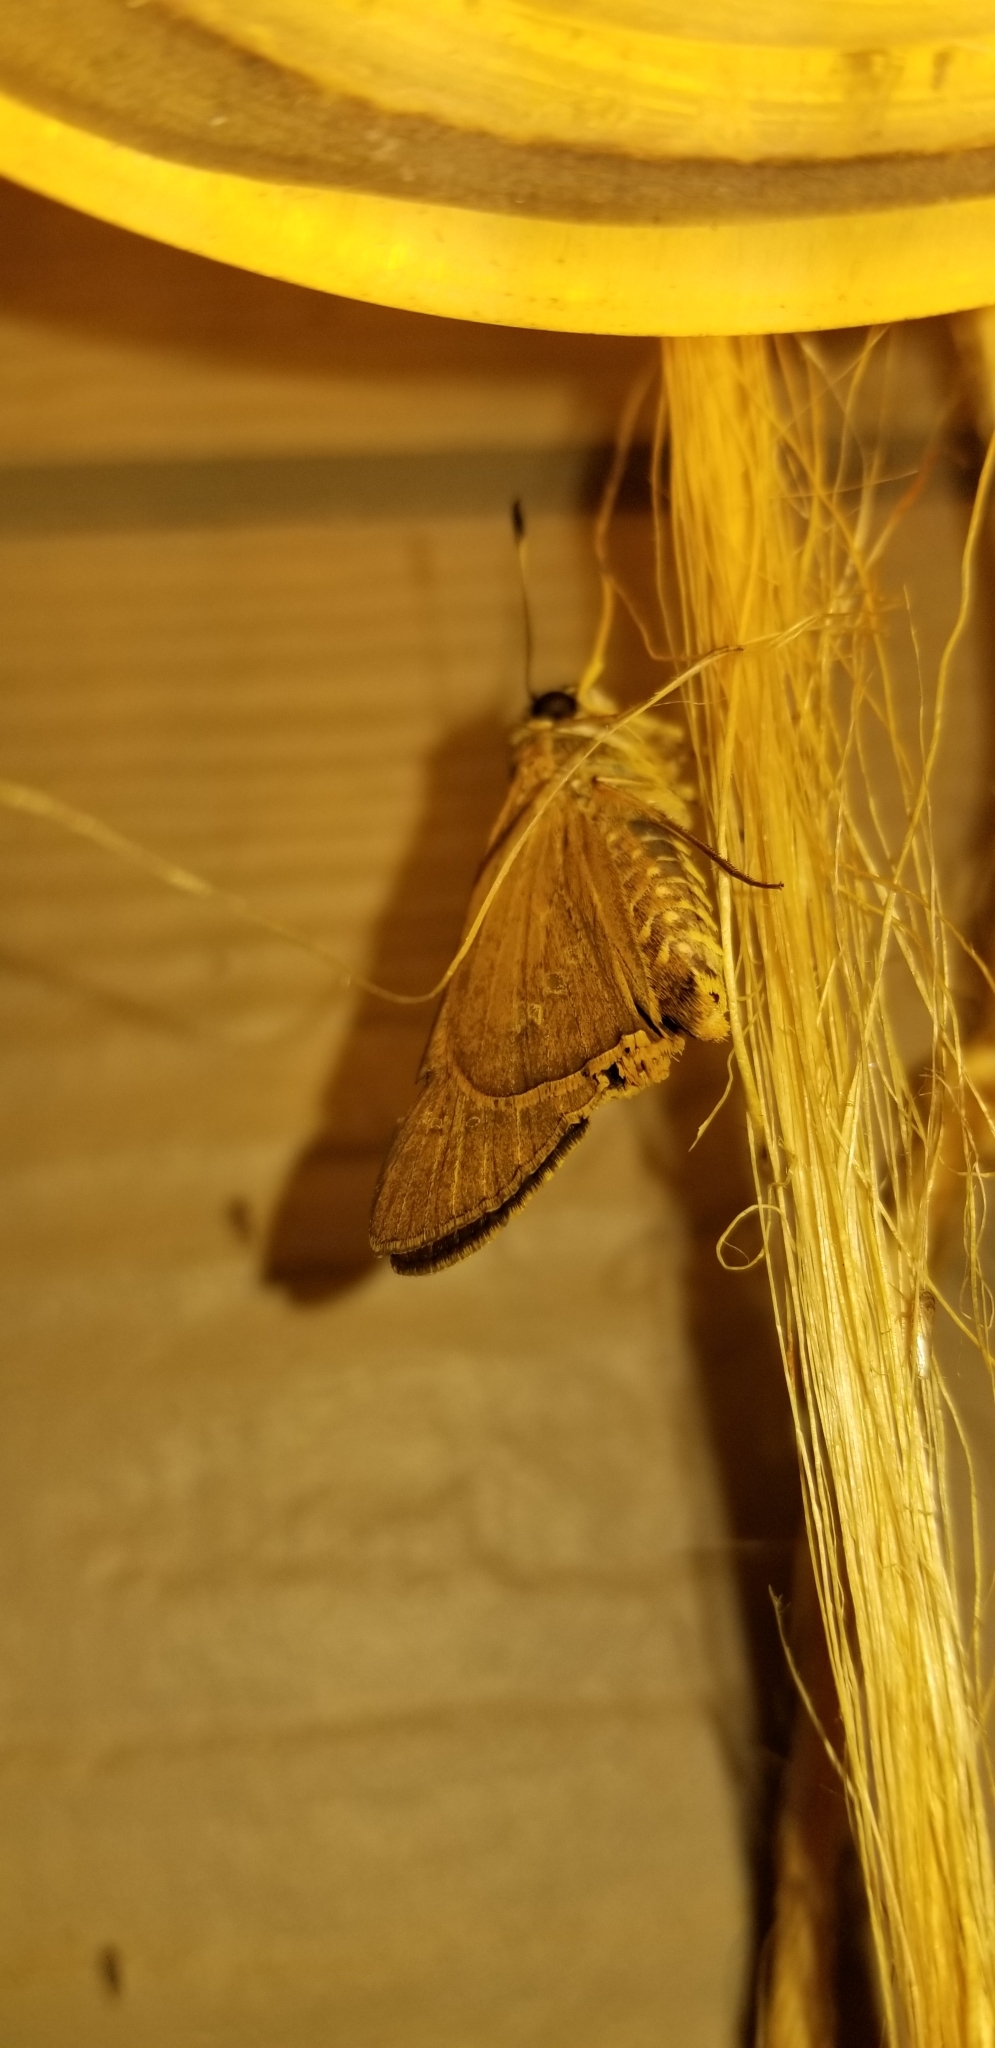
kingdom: Animalia
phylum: Arthropoda
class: Insecta
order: Lepidoptera
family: Hesperiidae
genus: Calpodes
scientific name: Calpodes ethlius
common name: Brazilian skipper
